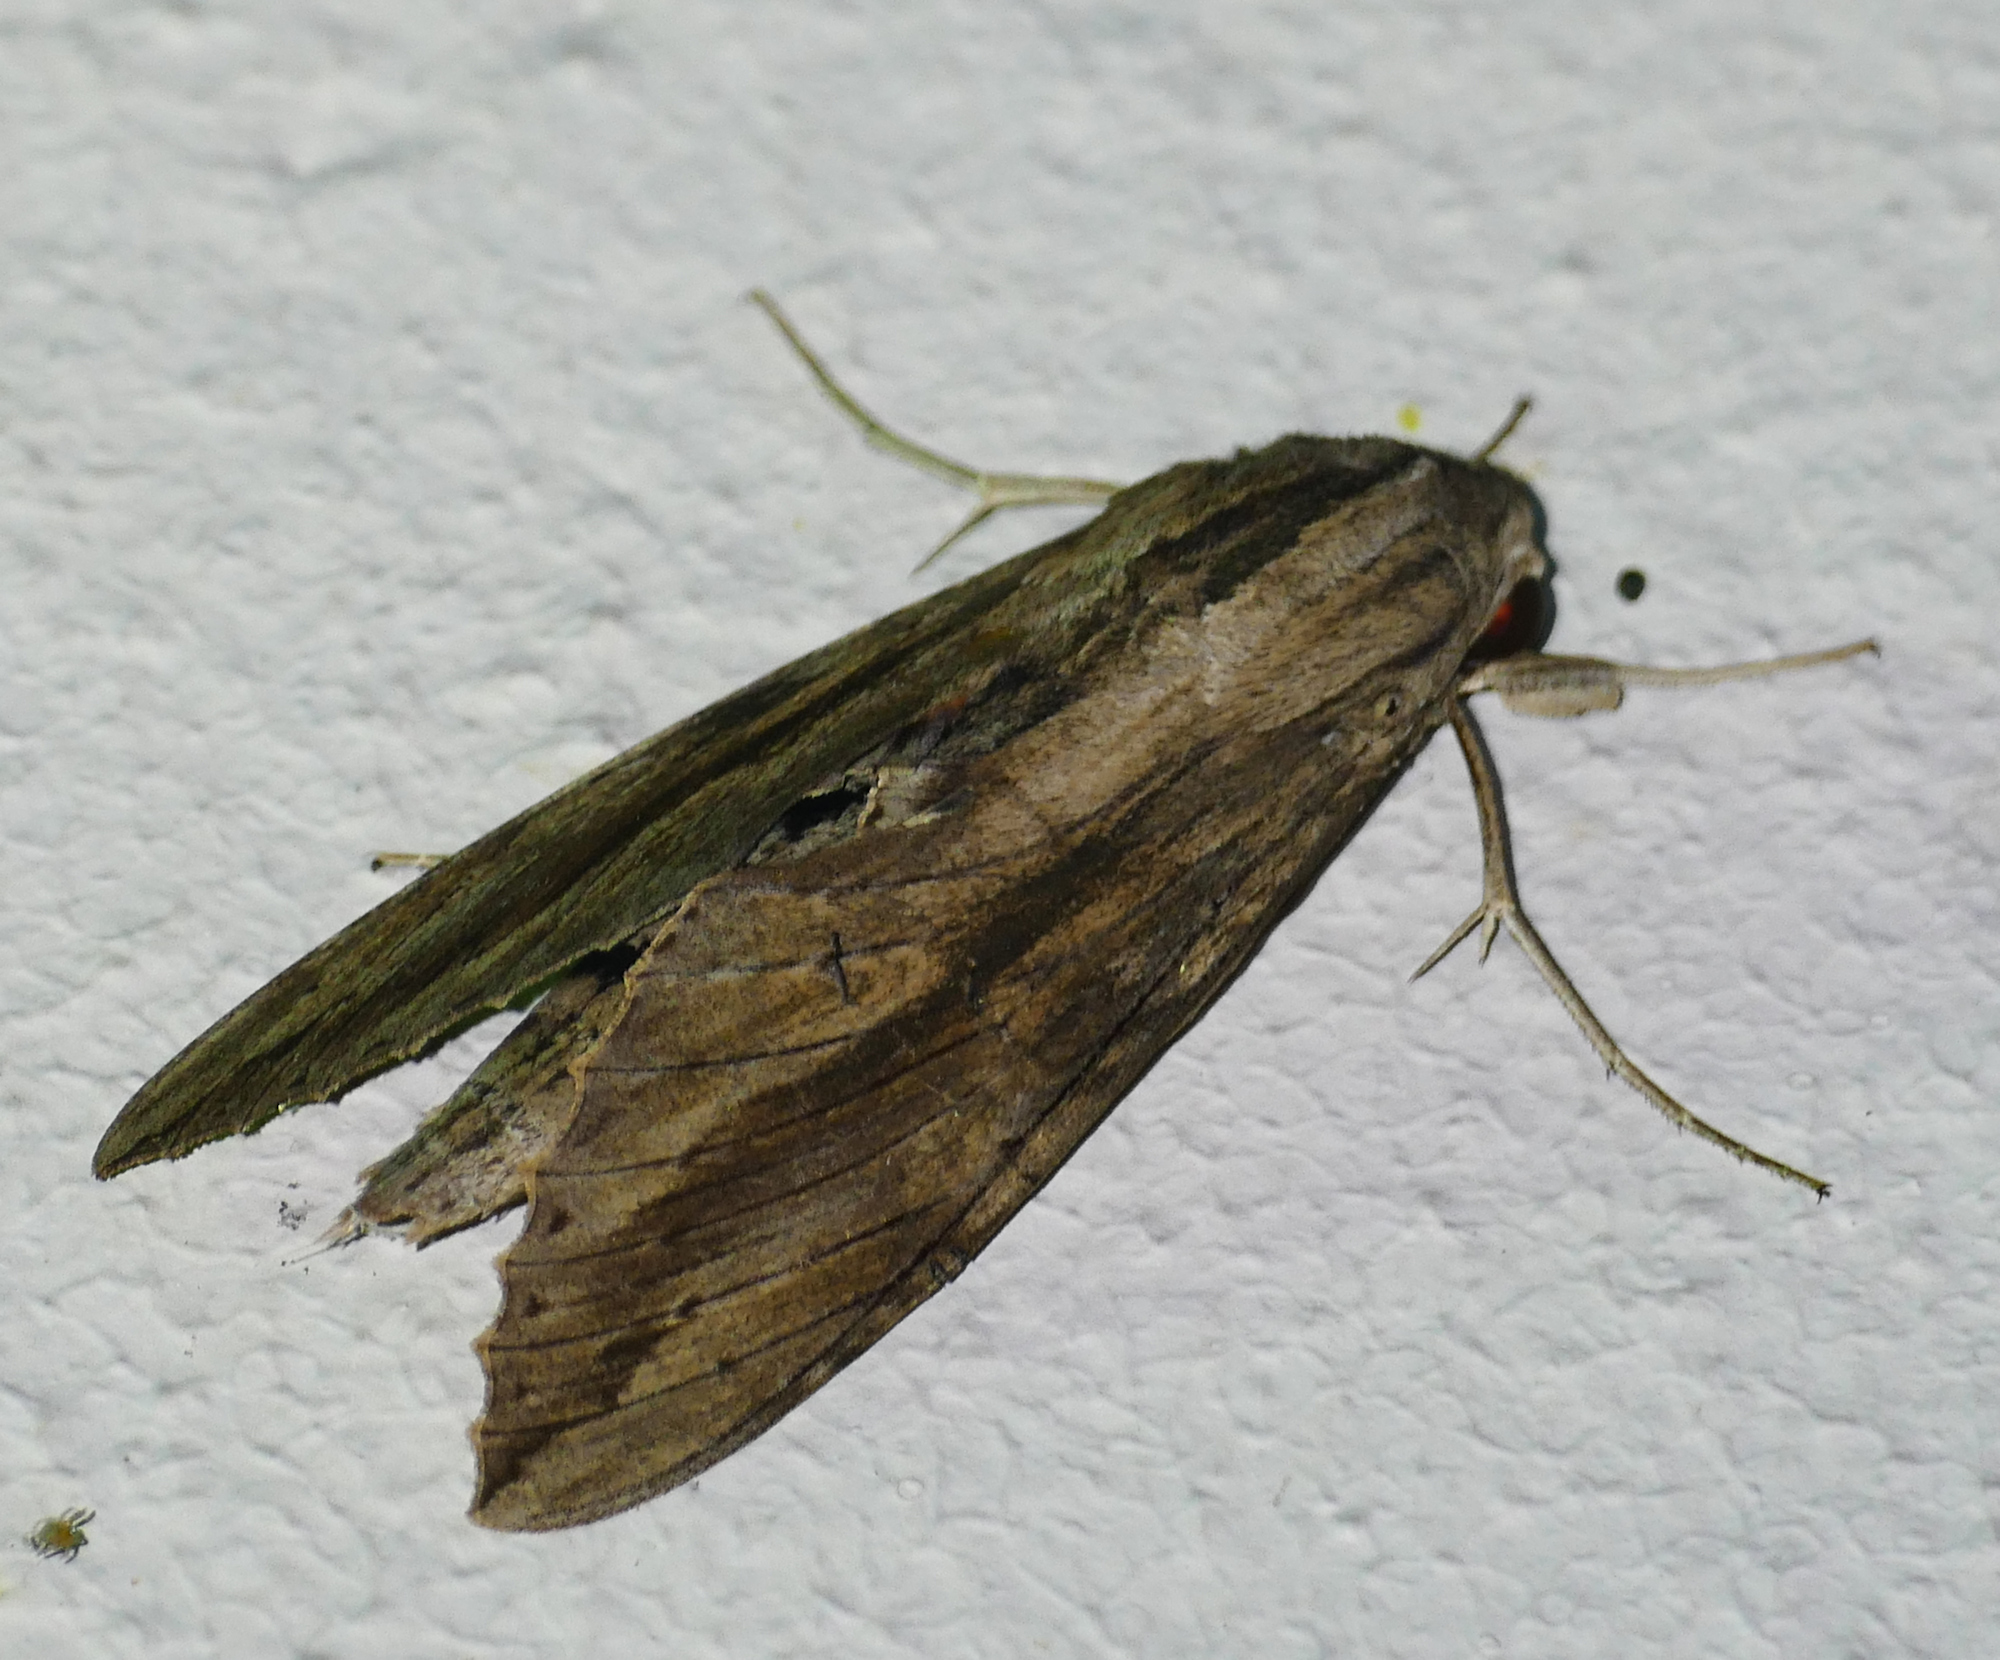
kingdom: Animalia
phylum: Arthropoda
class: Insecta
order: Lepidoptera
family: Sphingidae
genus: Erinnyis
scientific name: Erinnyis ello
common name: Ello sphinx
